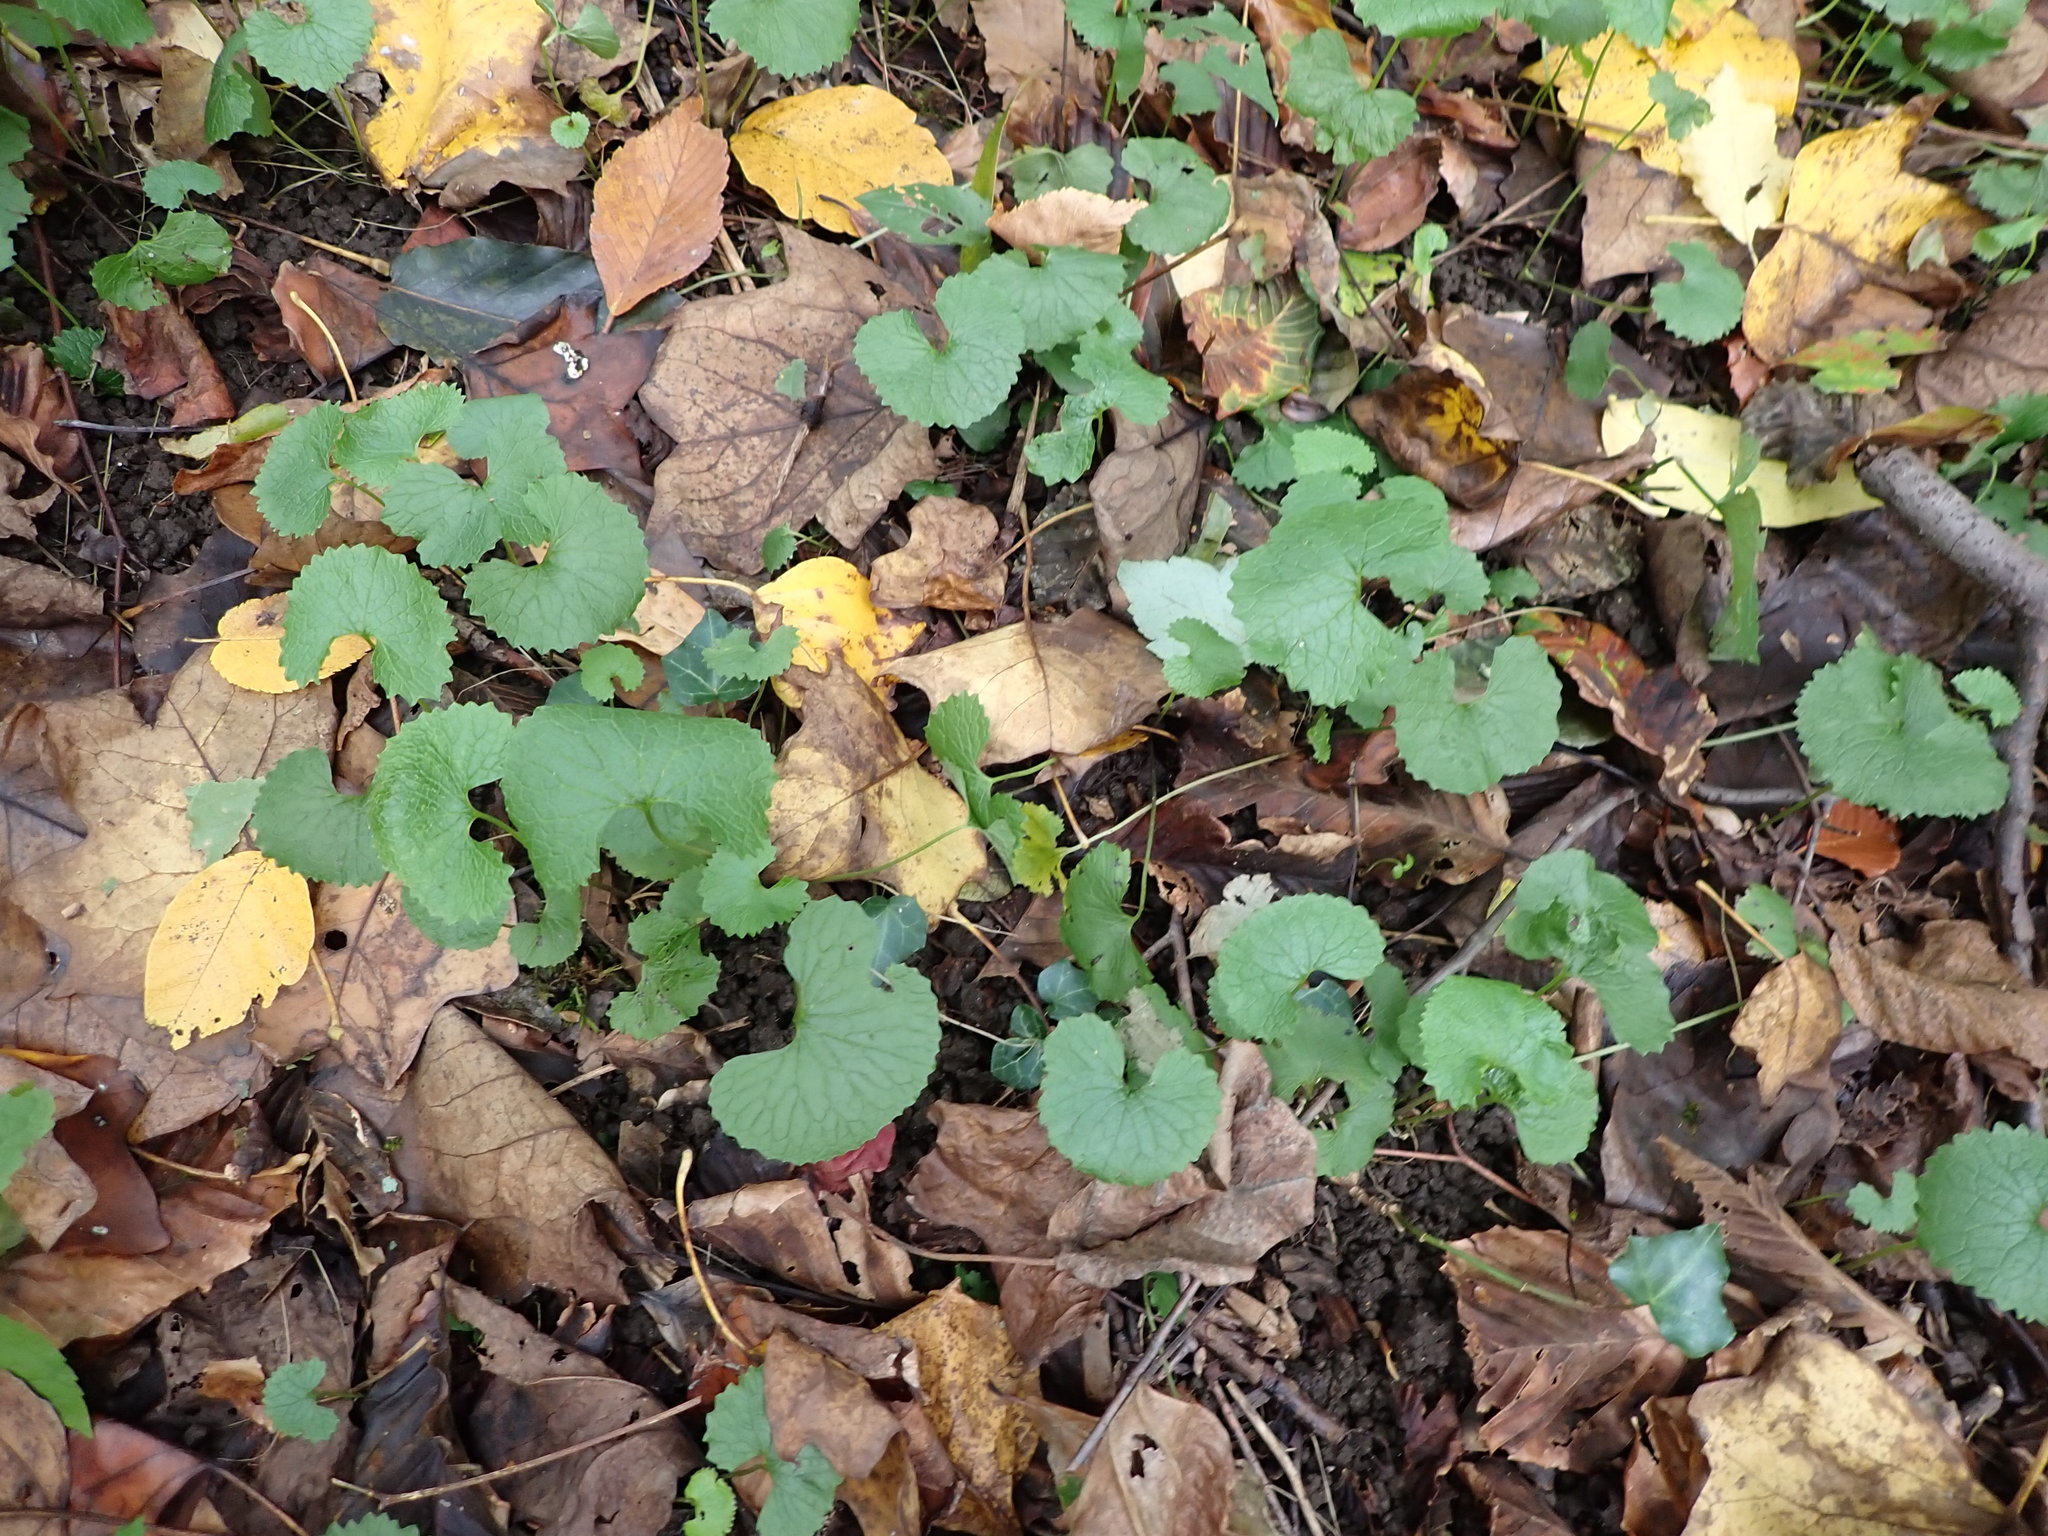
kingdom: Plantae
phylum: Tracheophyta
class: Magnoliopsida
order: Brassicales
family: Brassicaceae
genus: Alliaria
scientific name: Alliaria petiolata
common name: Garlic mustard
